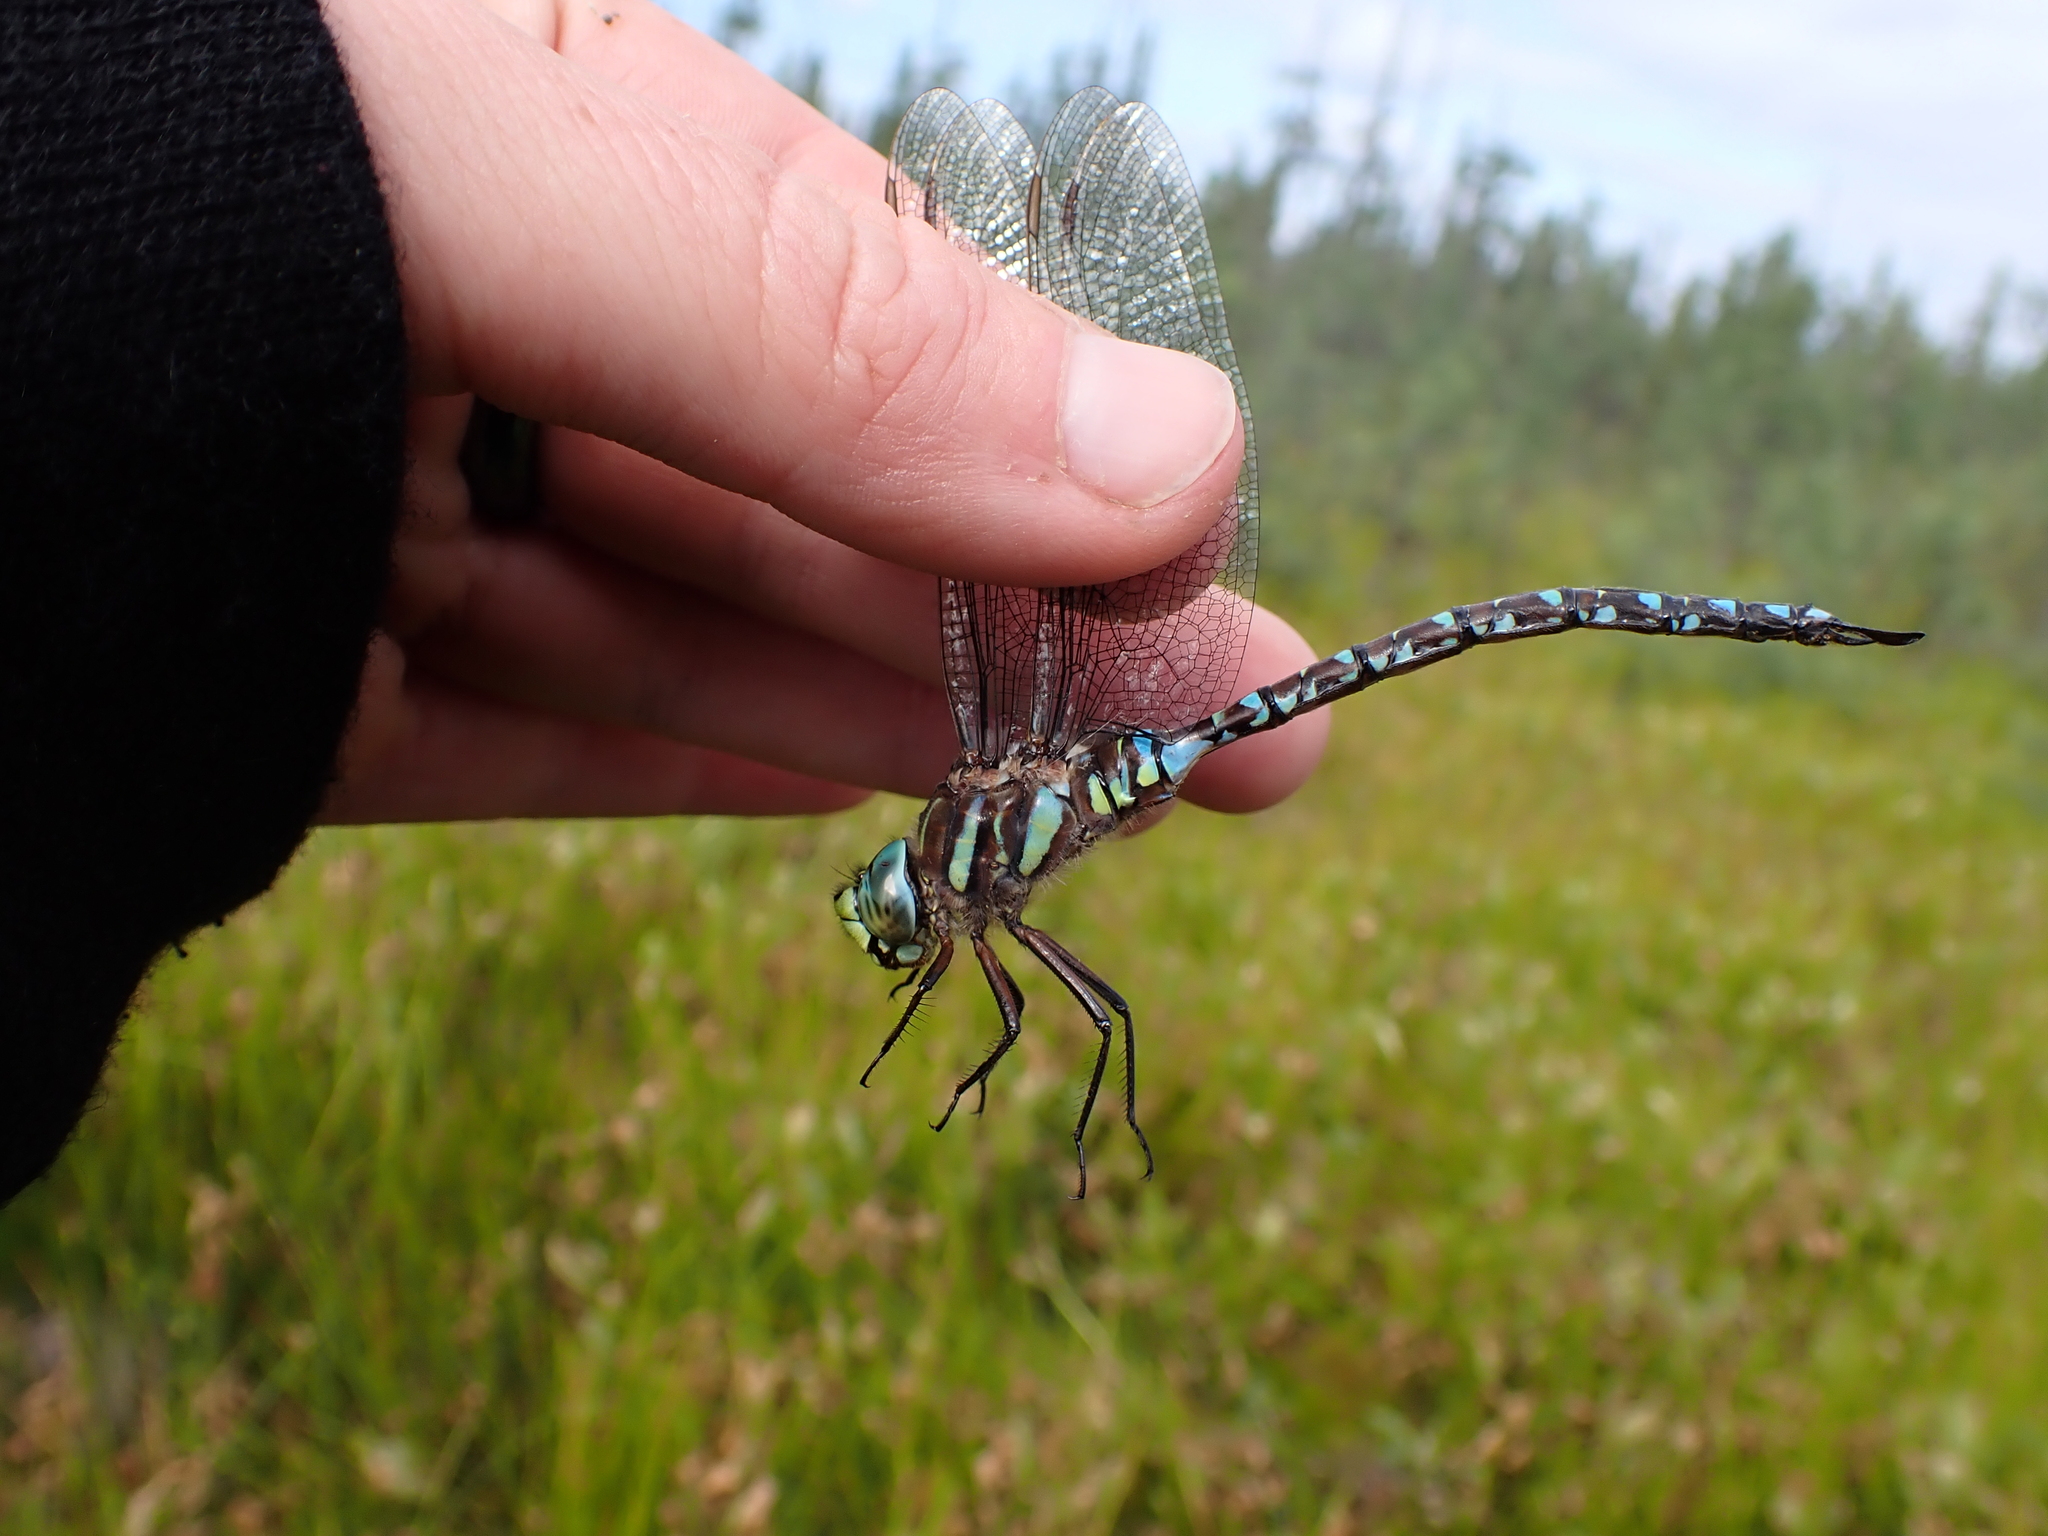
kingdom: Animalia
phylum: Arthropoda
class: Insecta
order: Odonata
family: Aeshnidae
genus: Aeshna
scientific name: Aeshna juncea
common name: Moorland hawker
